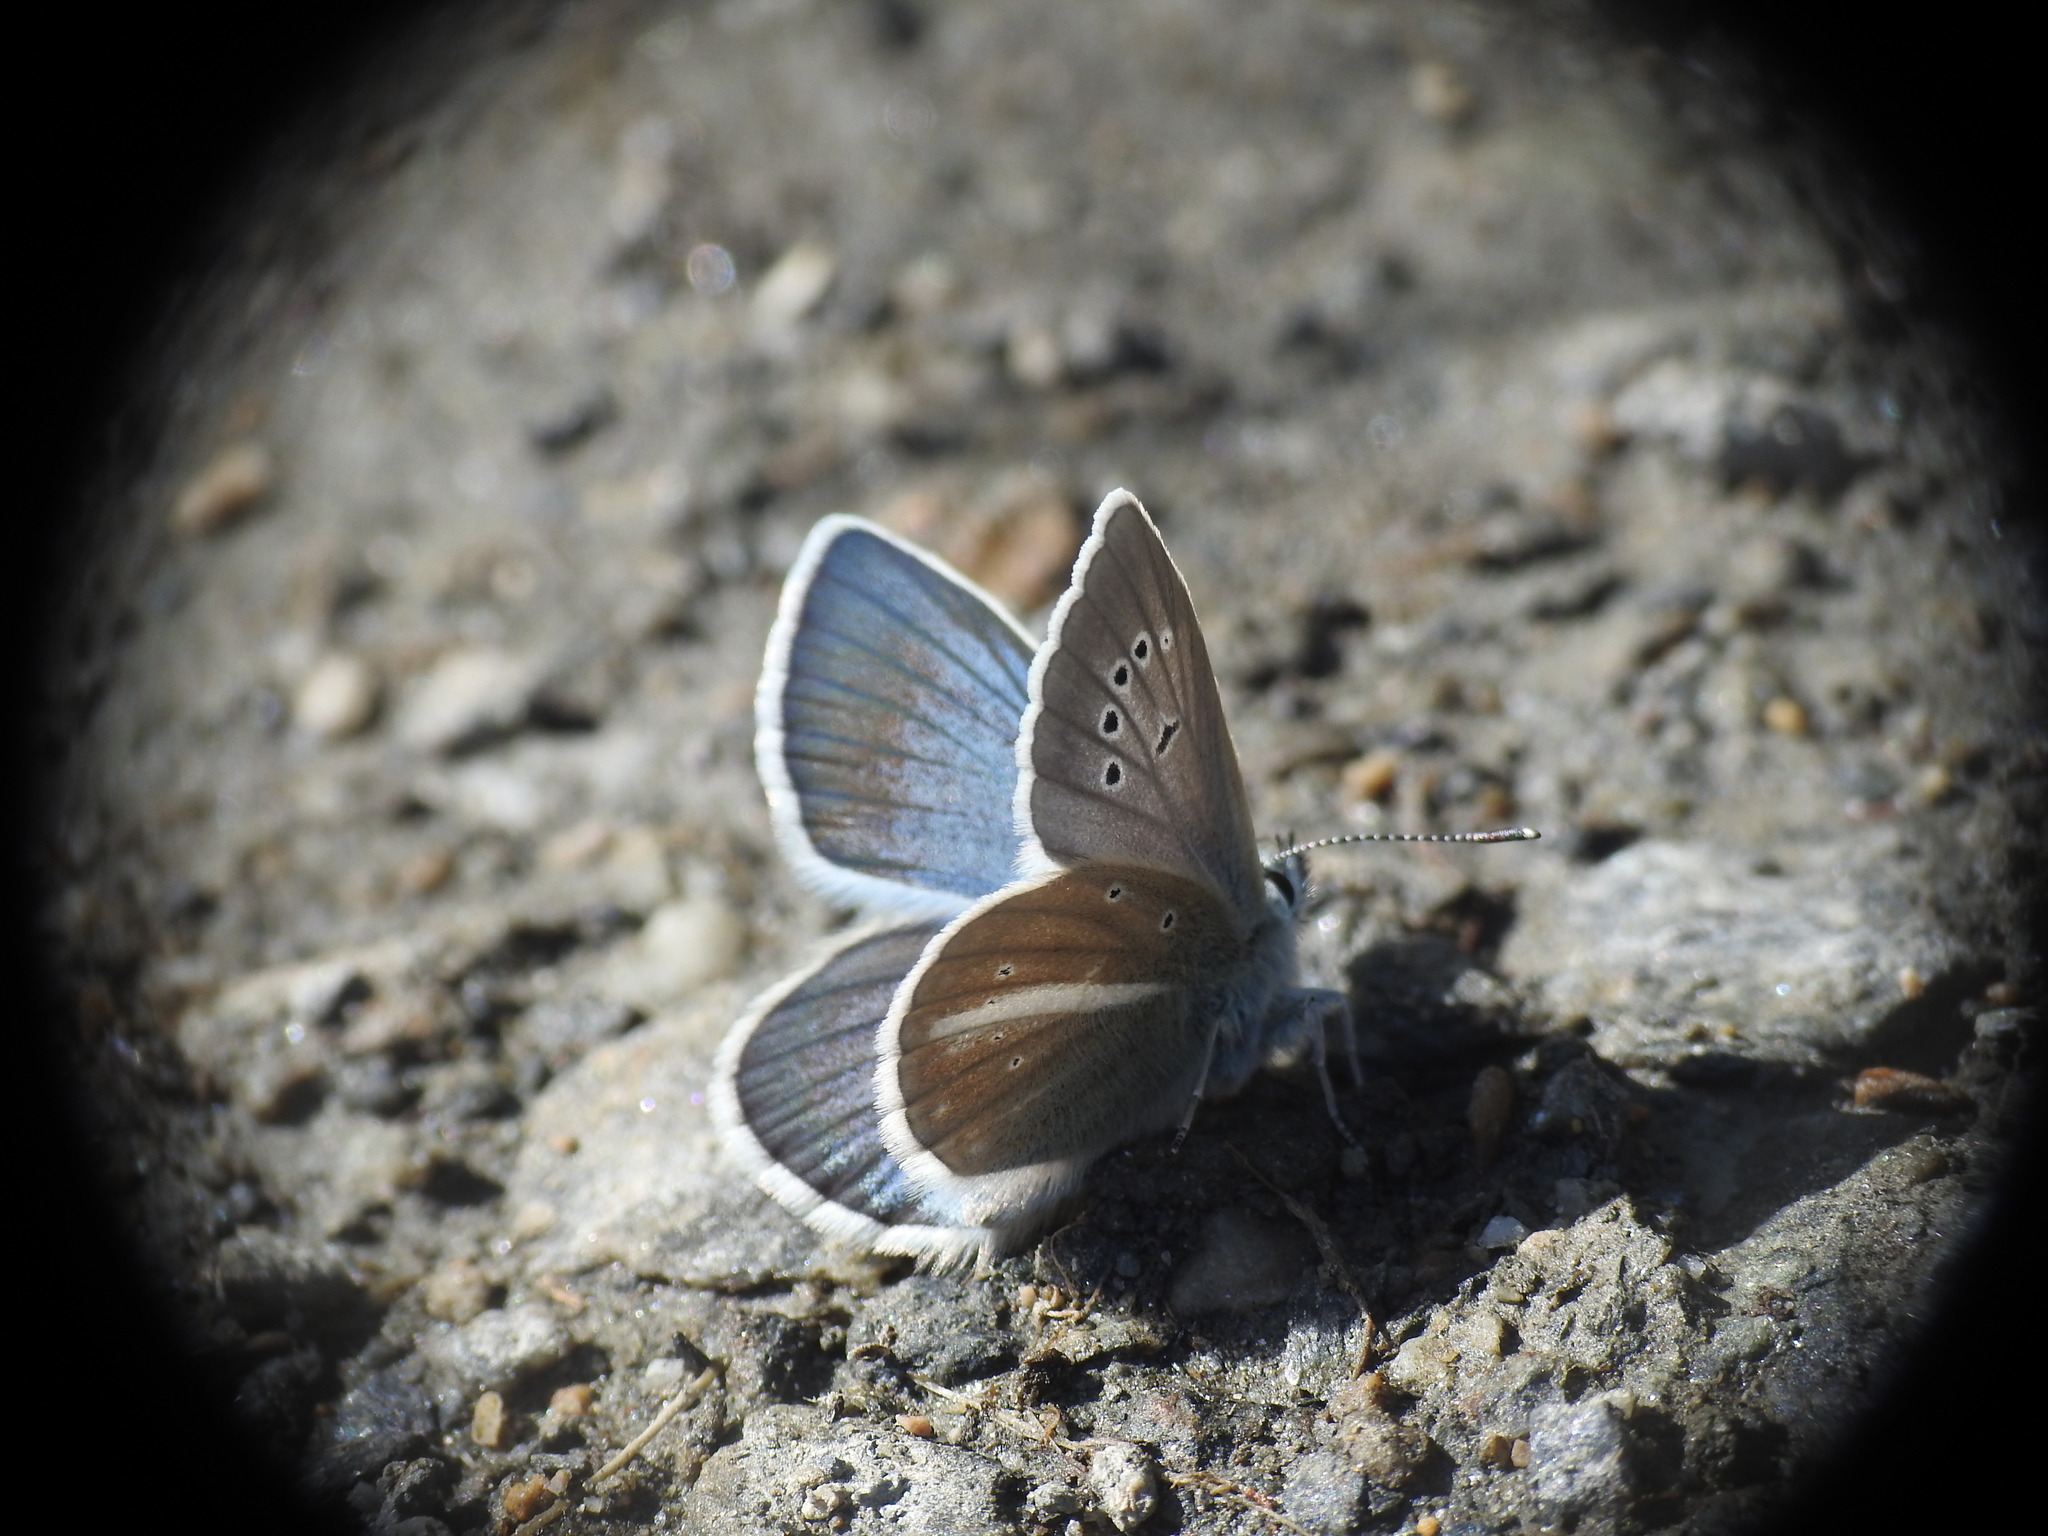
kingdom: Animalia
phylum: Arthropoda
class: Insecta
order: Lepidoptera
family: Lycaenidae
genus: Agrodiaetus
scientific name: Agrodiaetus damon
